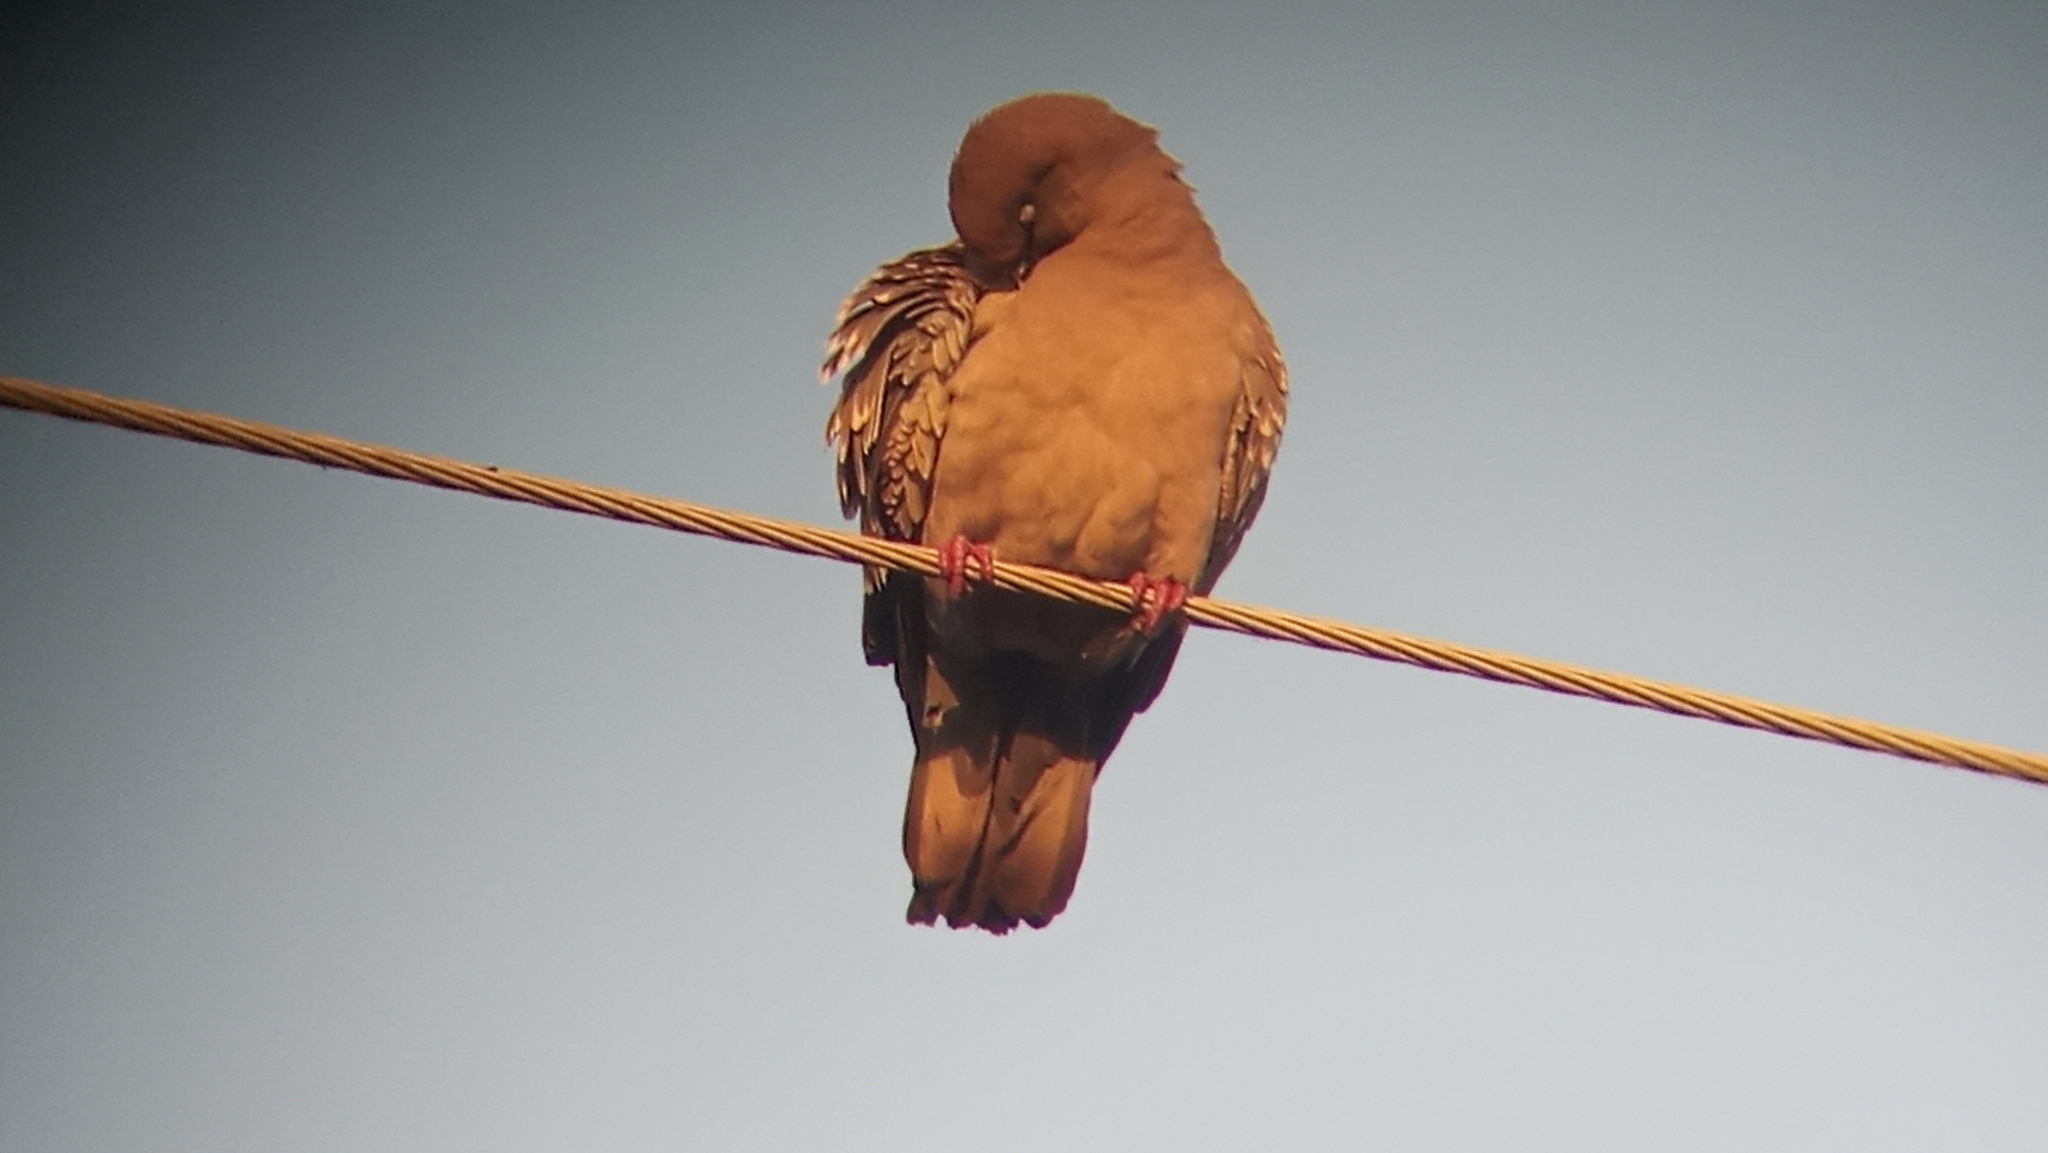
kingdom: Animalia
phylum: Chordata
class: Aves
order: Columbiformes
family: Columbidae
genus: Patagioenas
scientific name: Patagioenas maculosa
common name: Spot-winged pigeon
